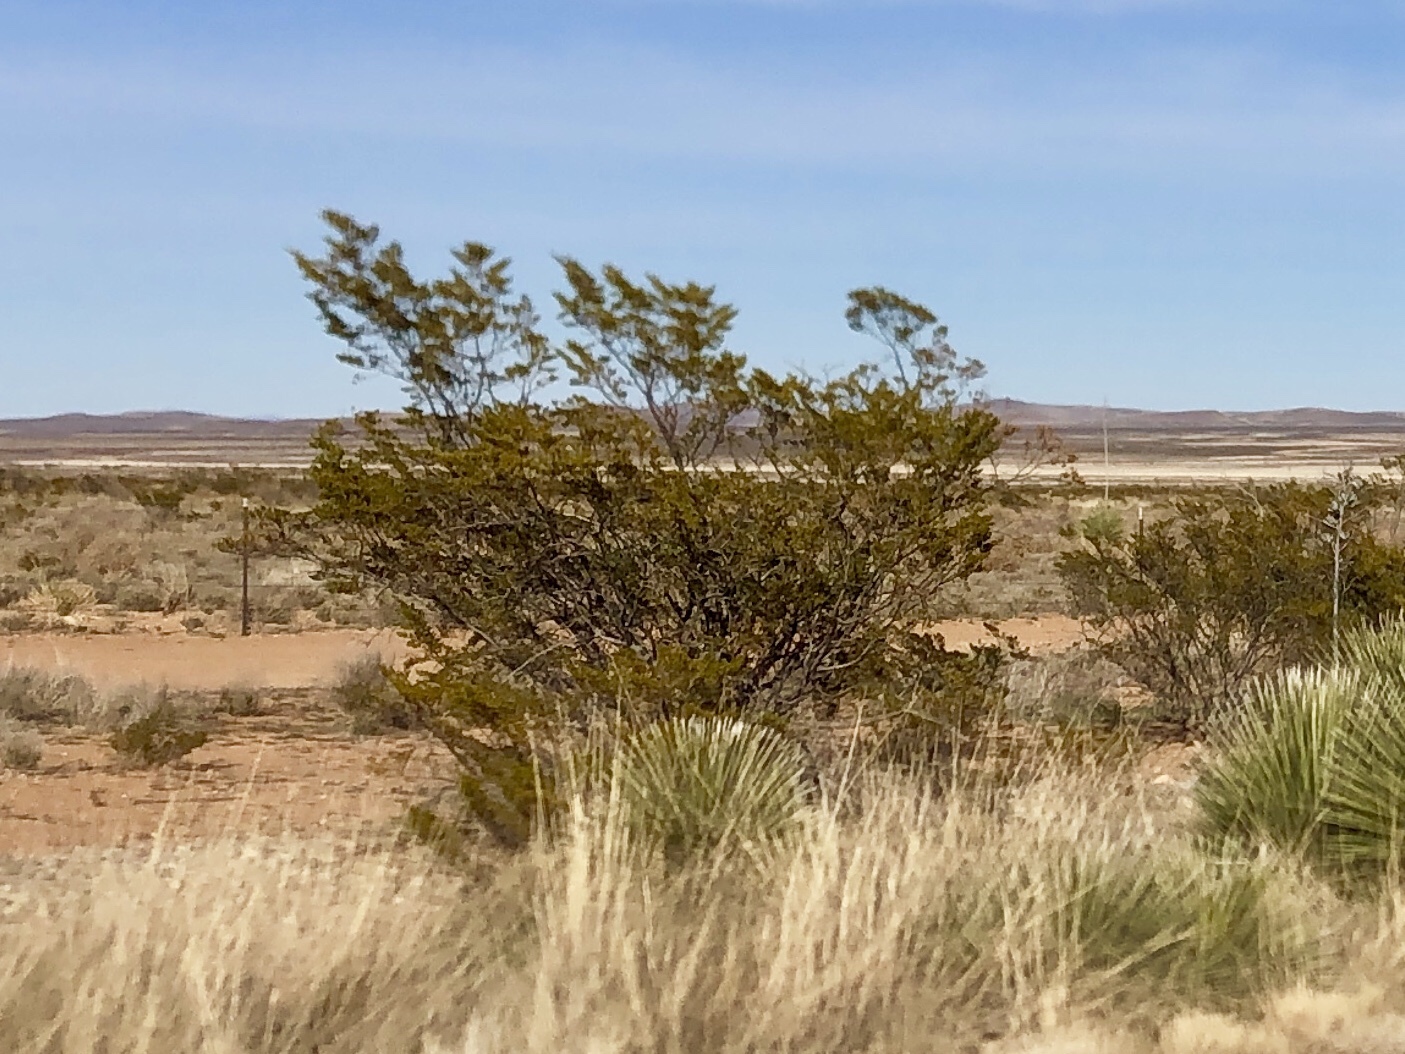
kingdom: Plantae
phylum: Tracheophyta
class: Magnoliopsida
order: Zygophyllales
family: Zygophyllaceae
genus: Larrea
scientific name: Larrea tridentata
